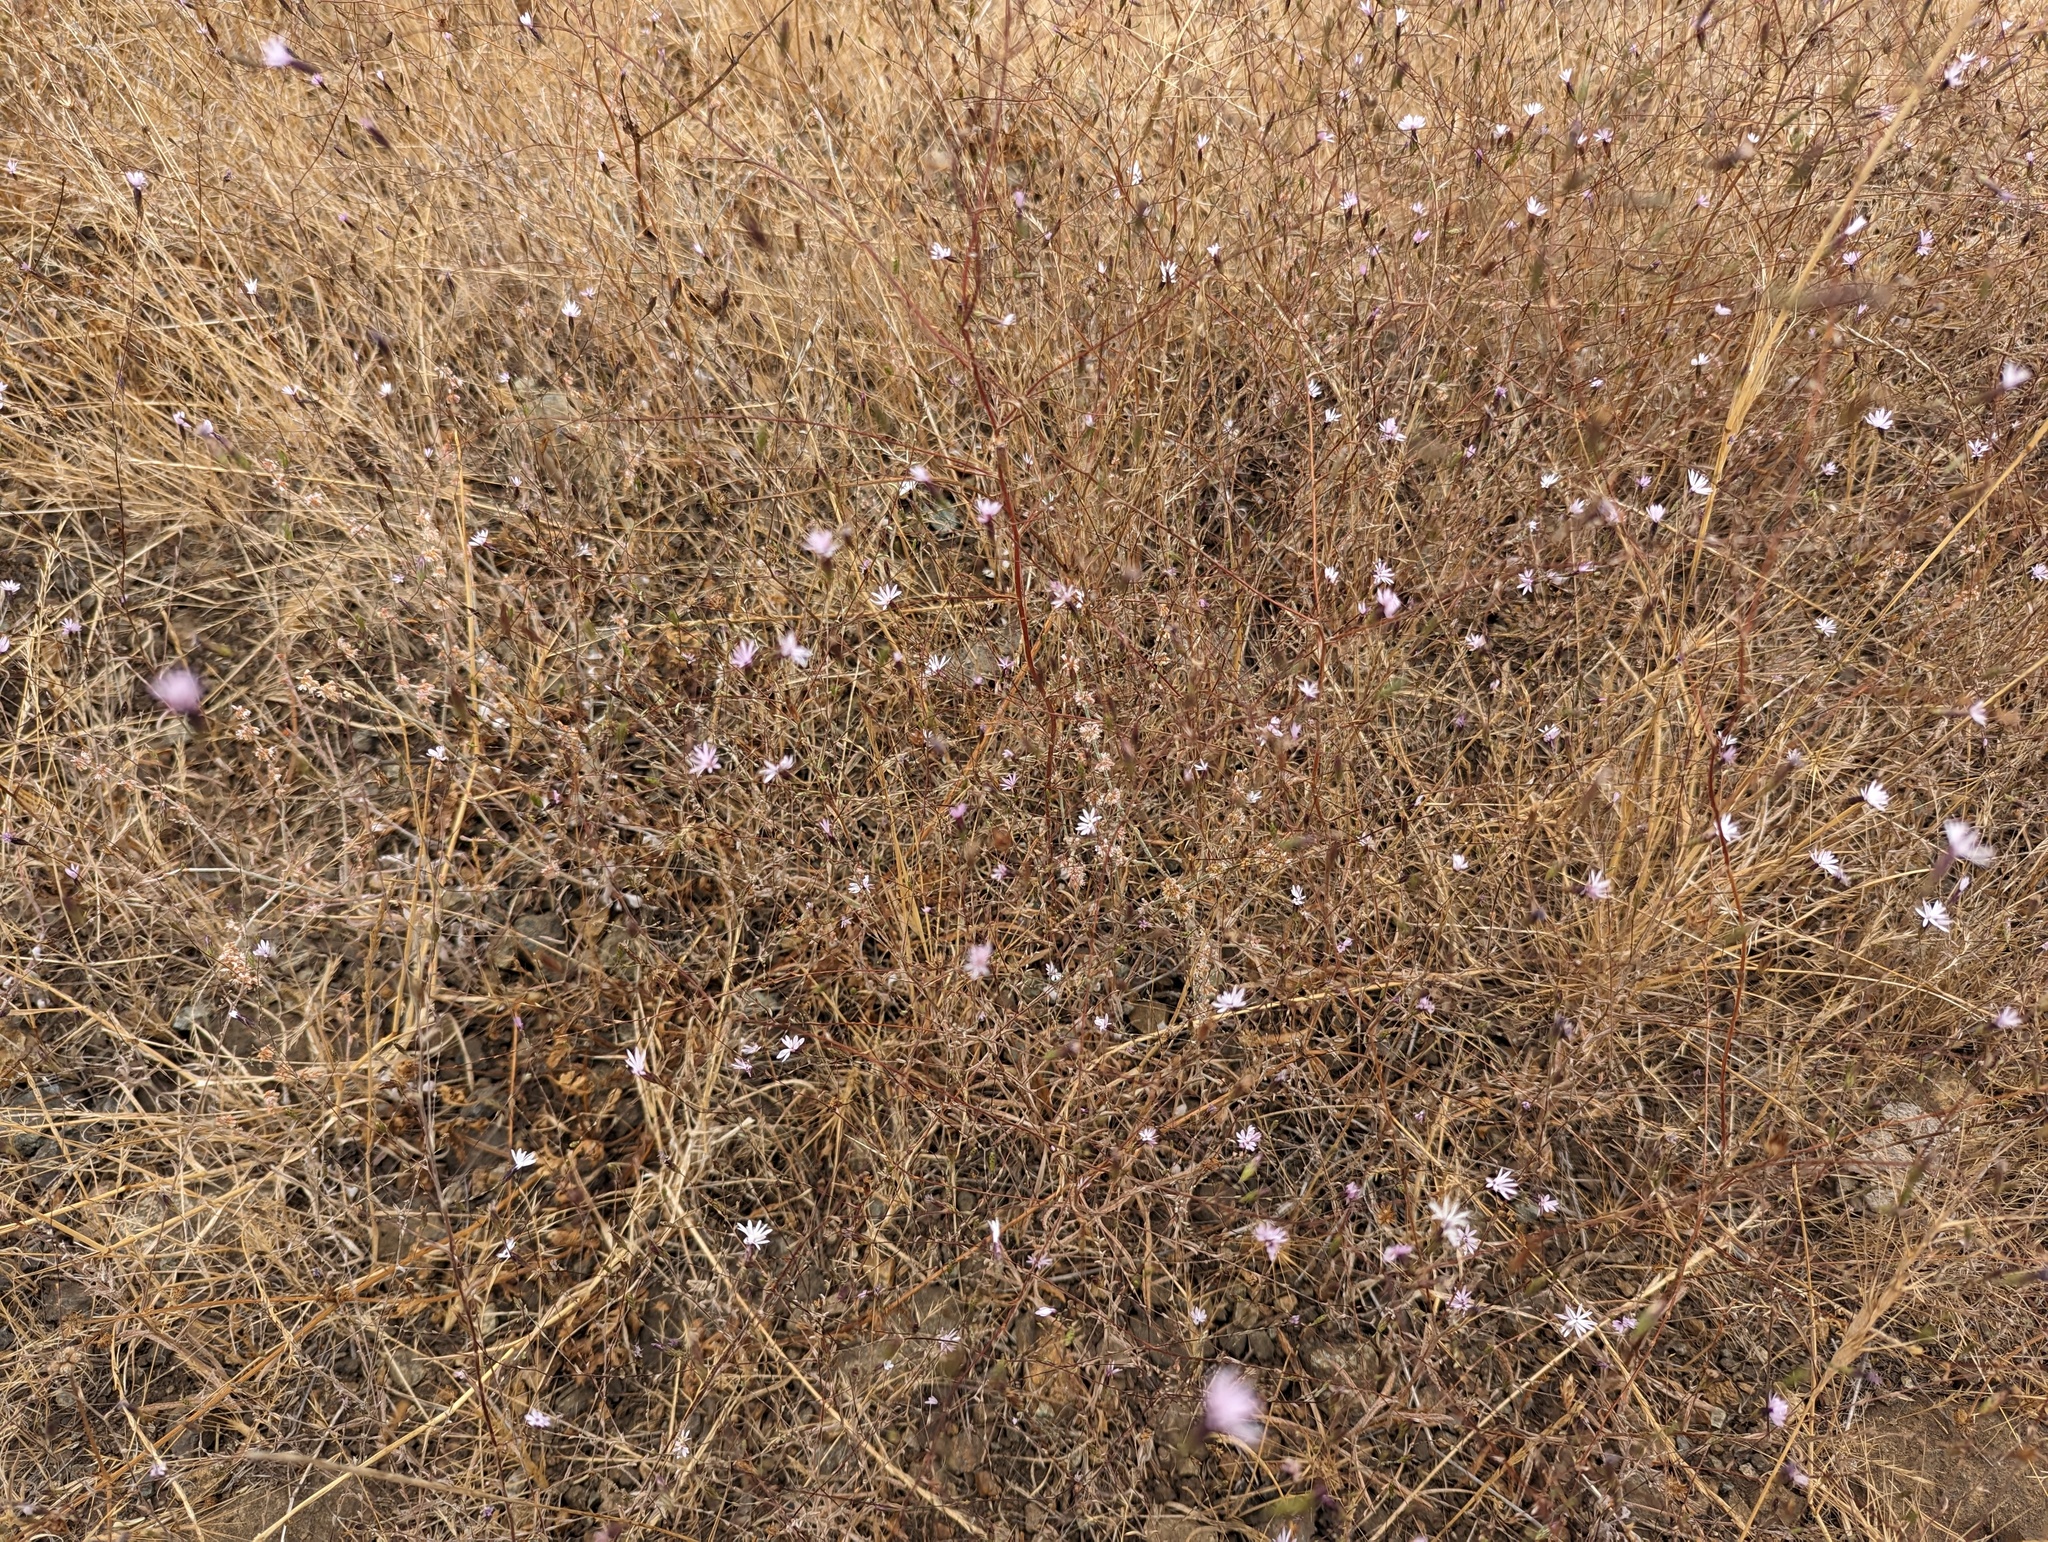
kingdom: Plantae
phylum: Tracheophyta
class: Magnoliopsida
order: Asterales
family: Asteraceae
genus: Lessingia
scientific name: Lessingia micradenia
